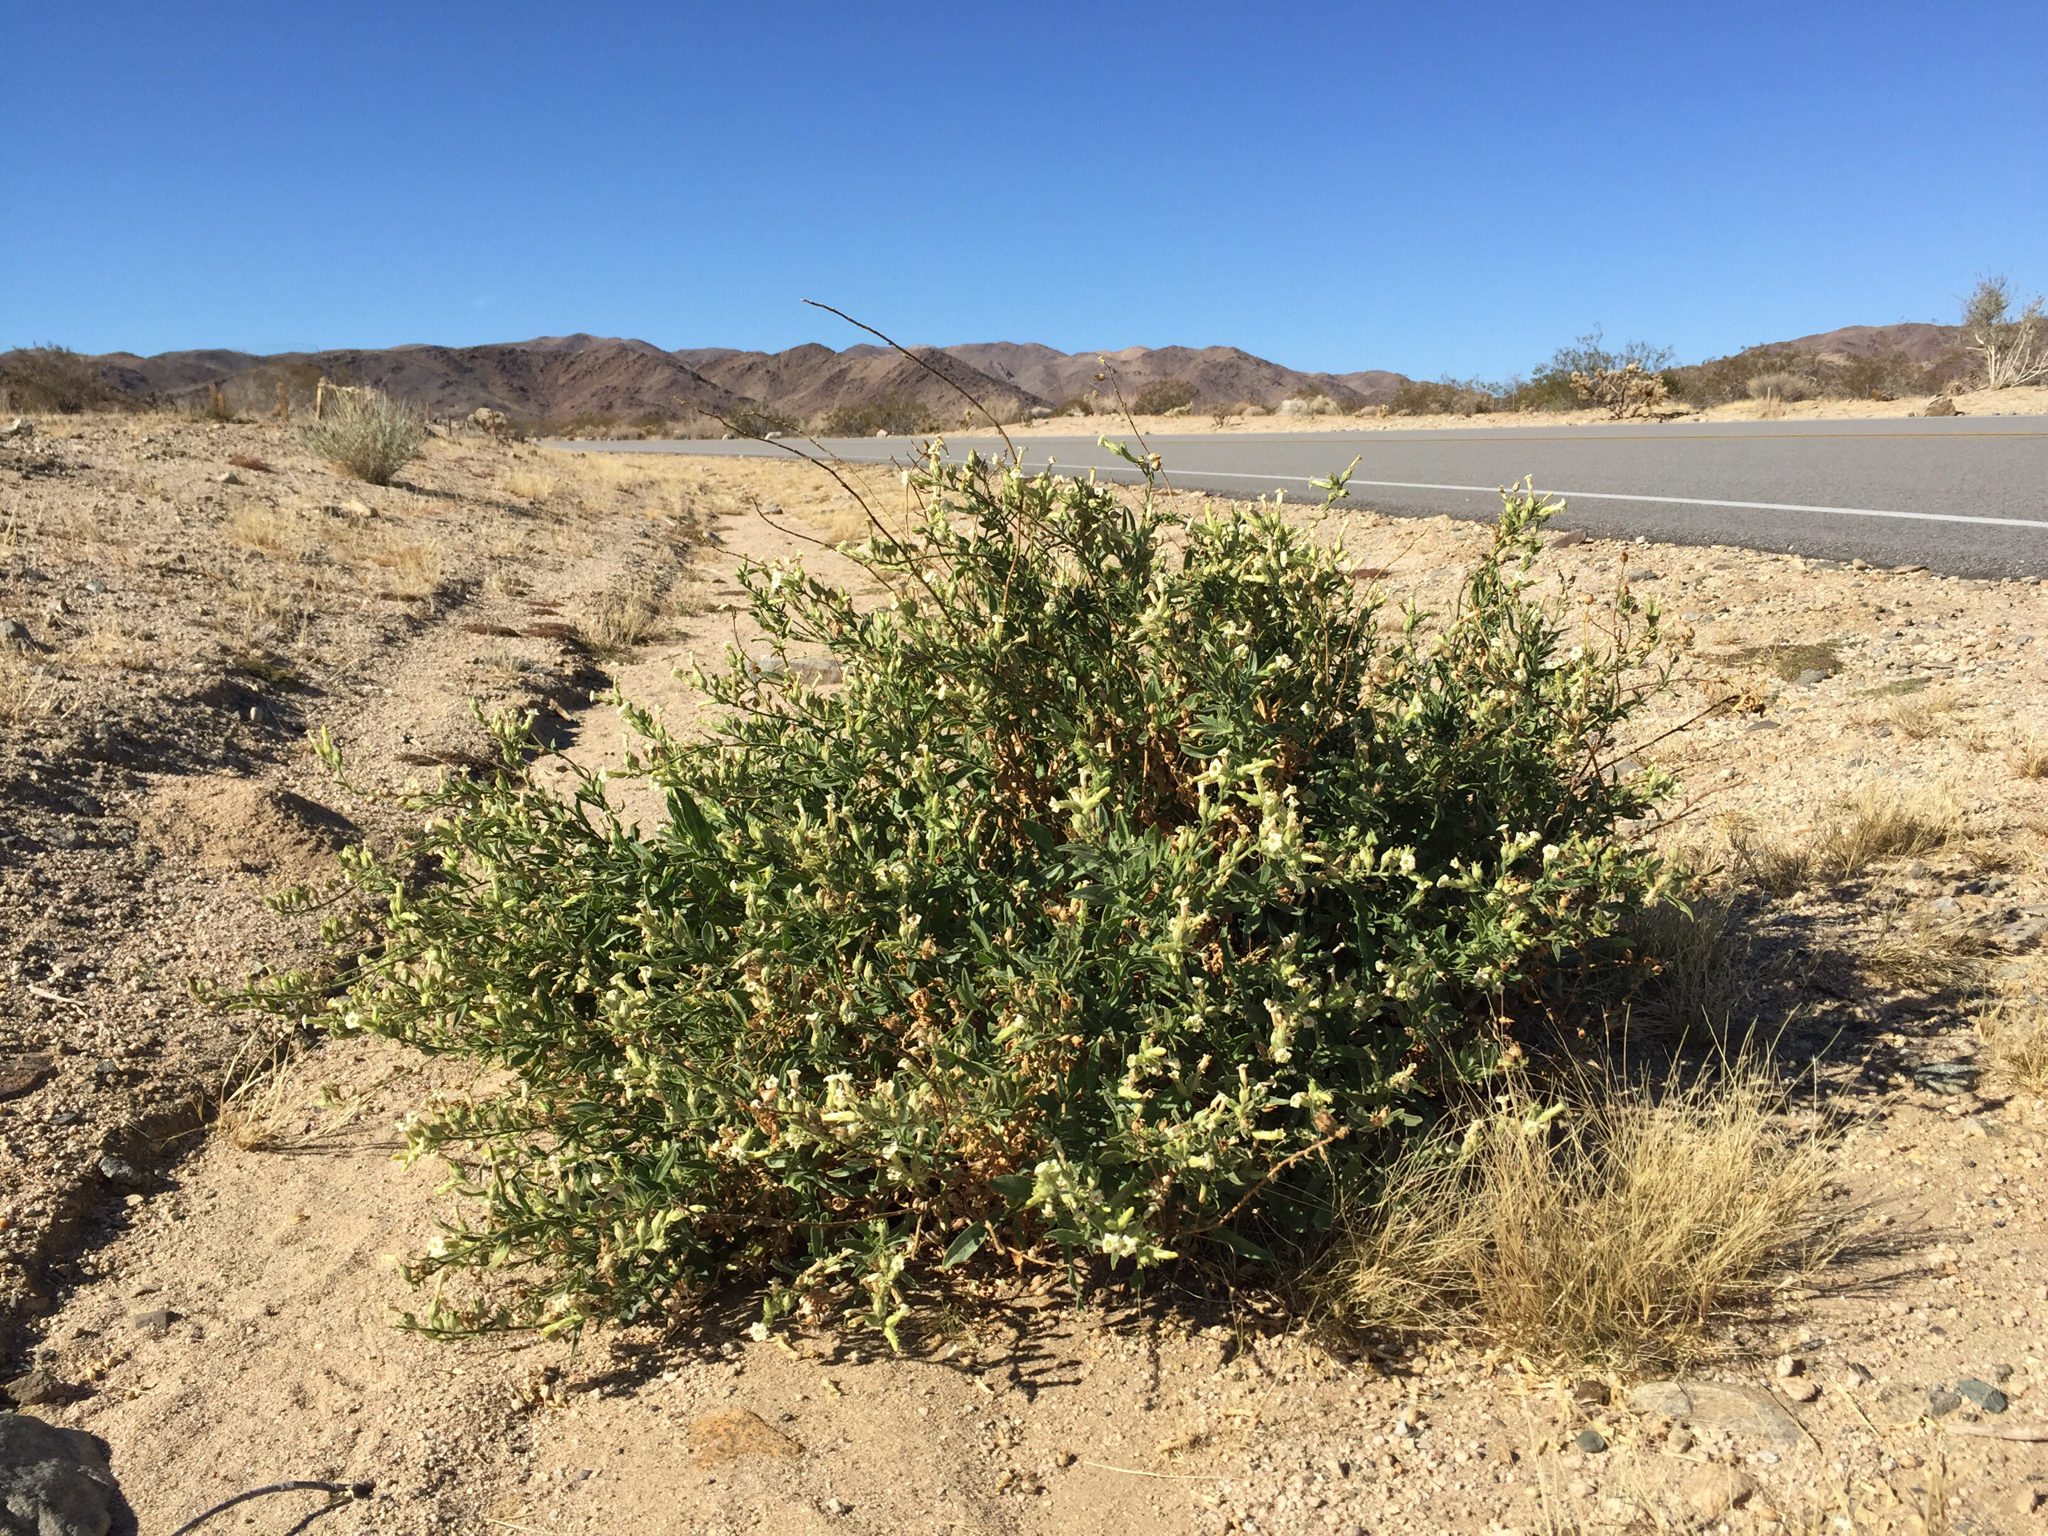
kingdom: Plantae
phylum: Tracheophyta
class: Magnoliopsida
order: Solanales
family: Solanaceae
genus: Nicotiana
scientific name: Nicotiana obtusifolia
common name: Desert tobacco
